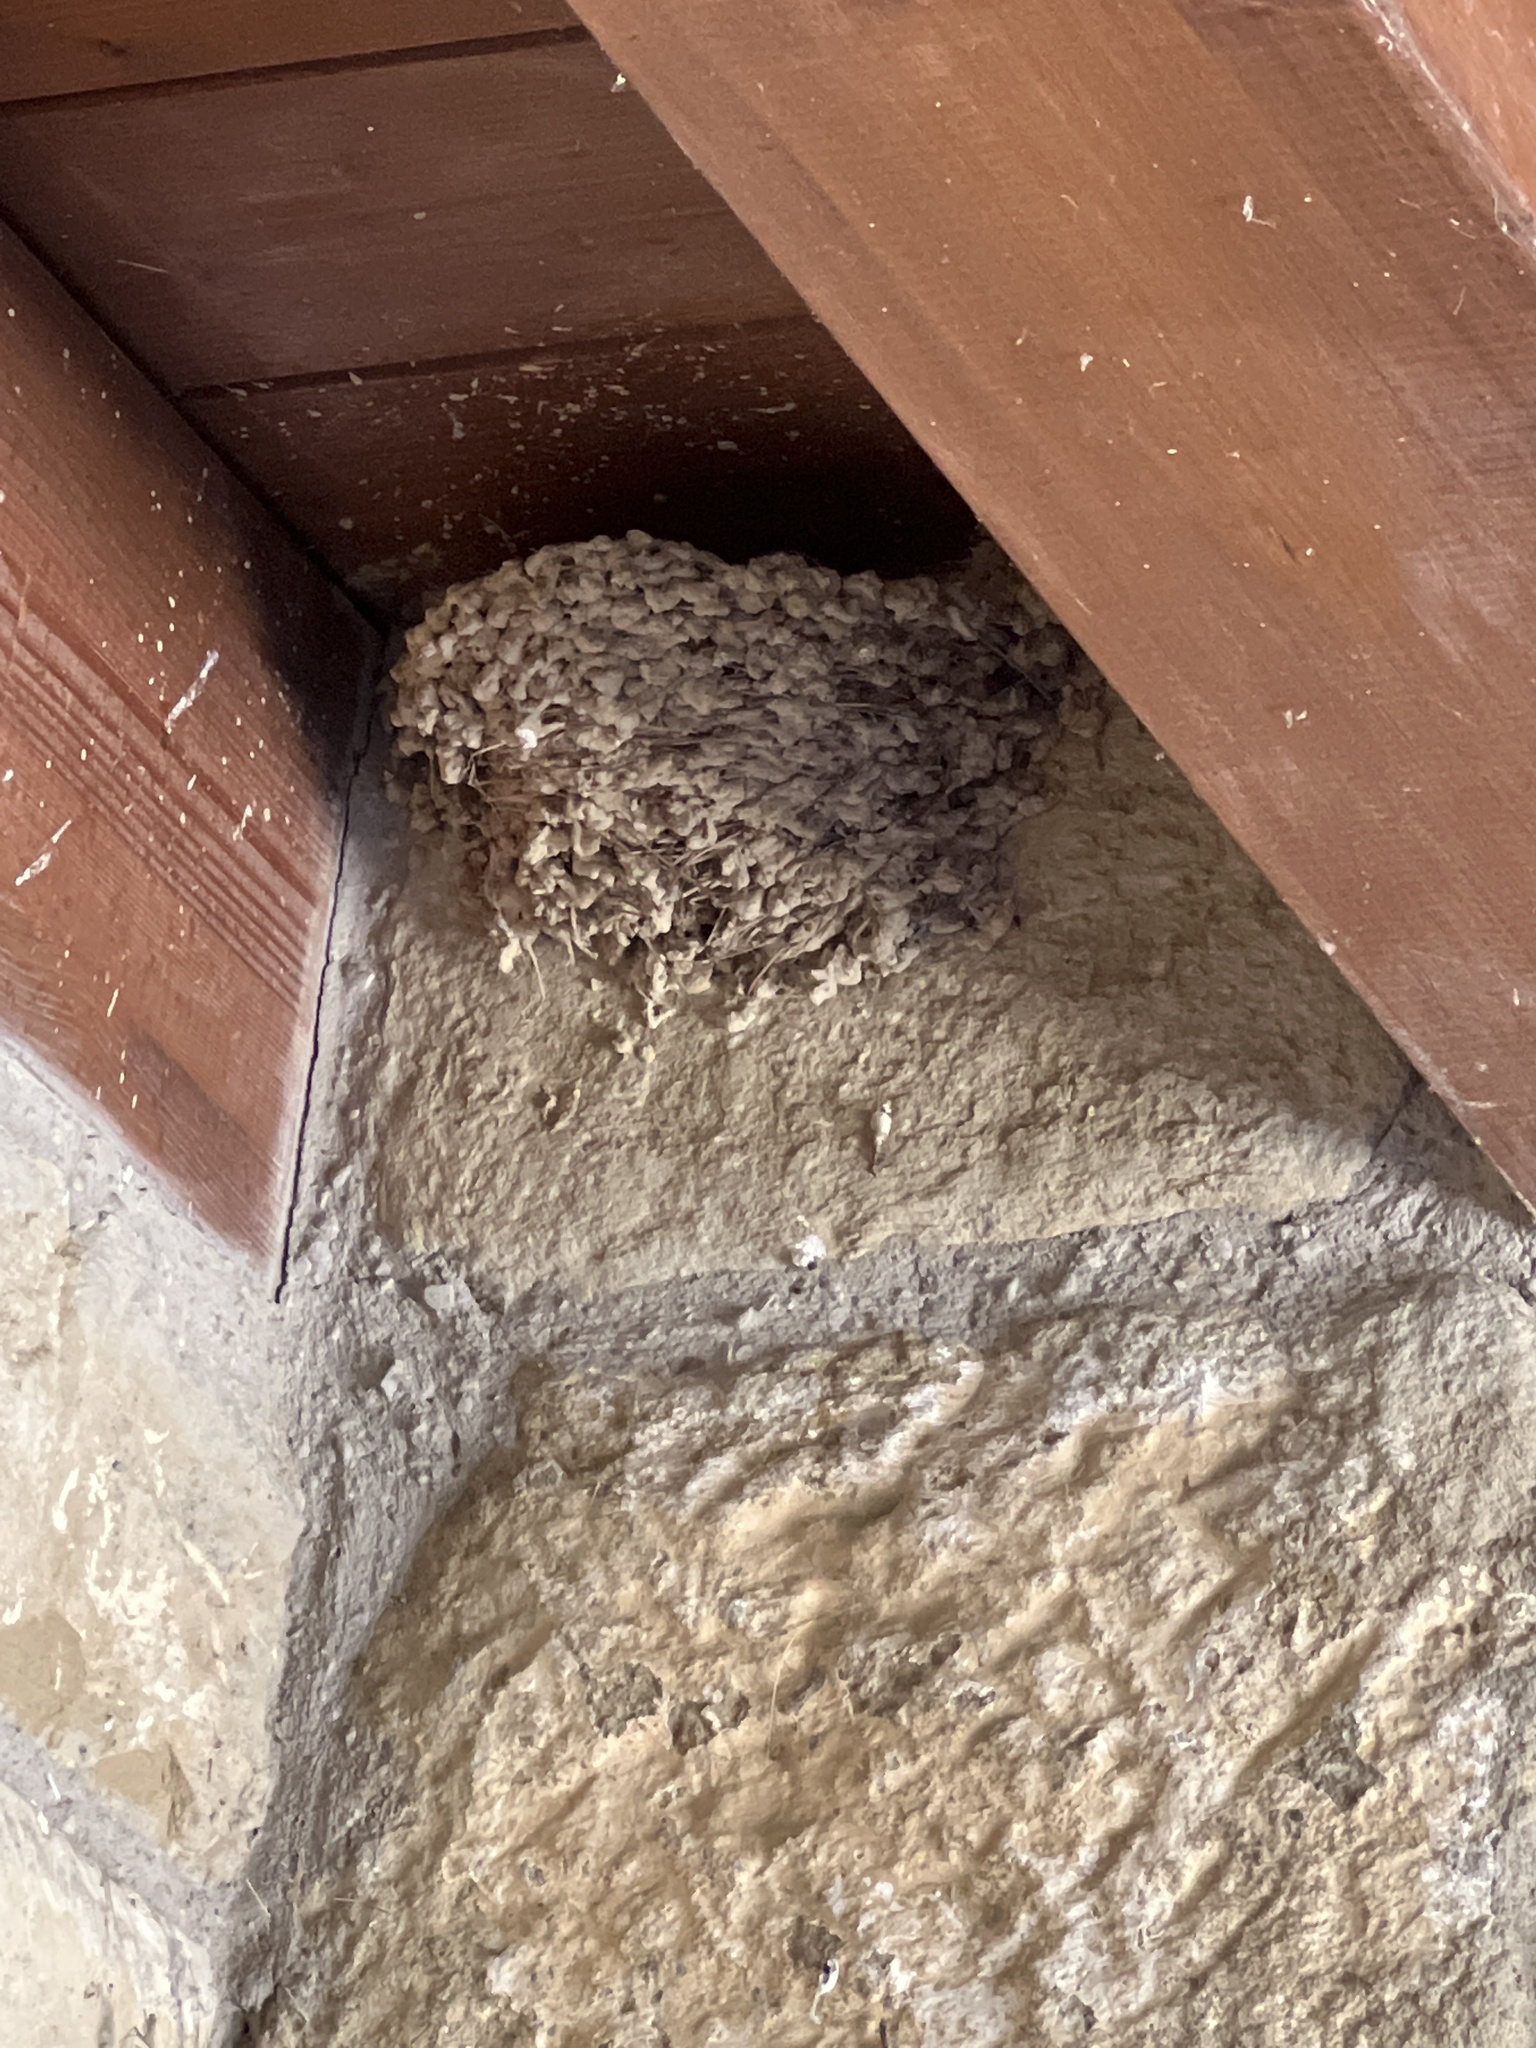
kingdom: Animalia
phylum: Chordata
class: Aves
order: Passeriformes
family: Hirundinidae
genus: Hirundo
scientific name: Hirundo rustica
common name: Barn swallow
